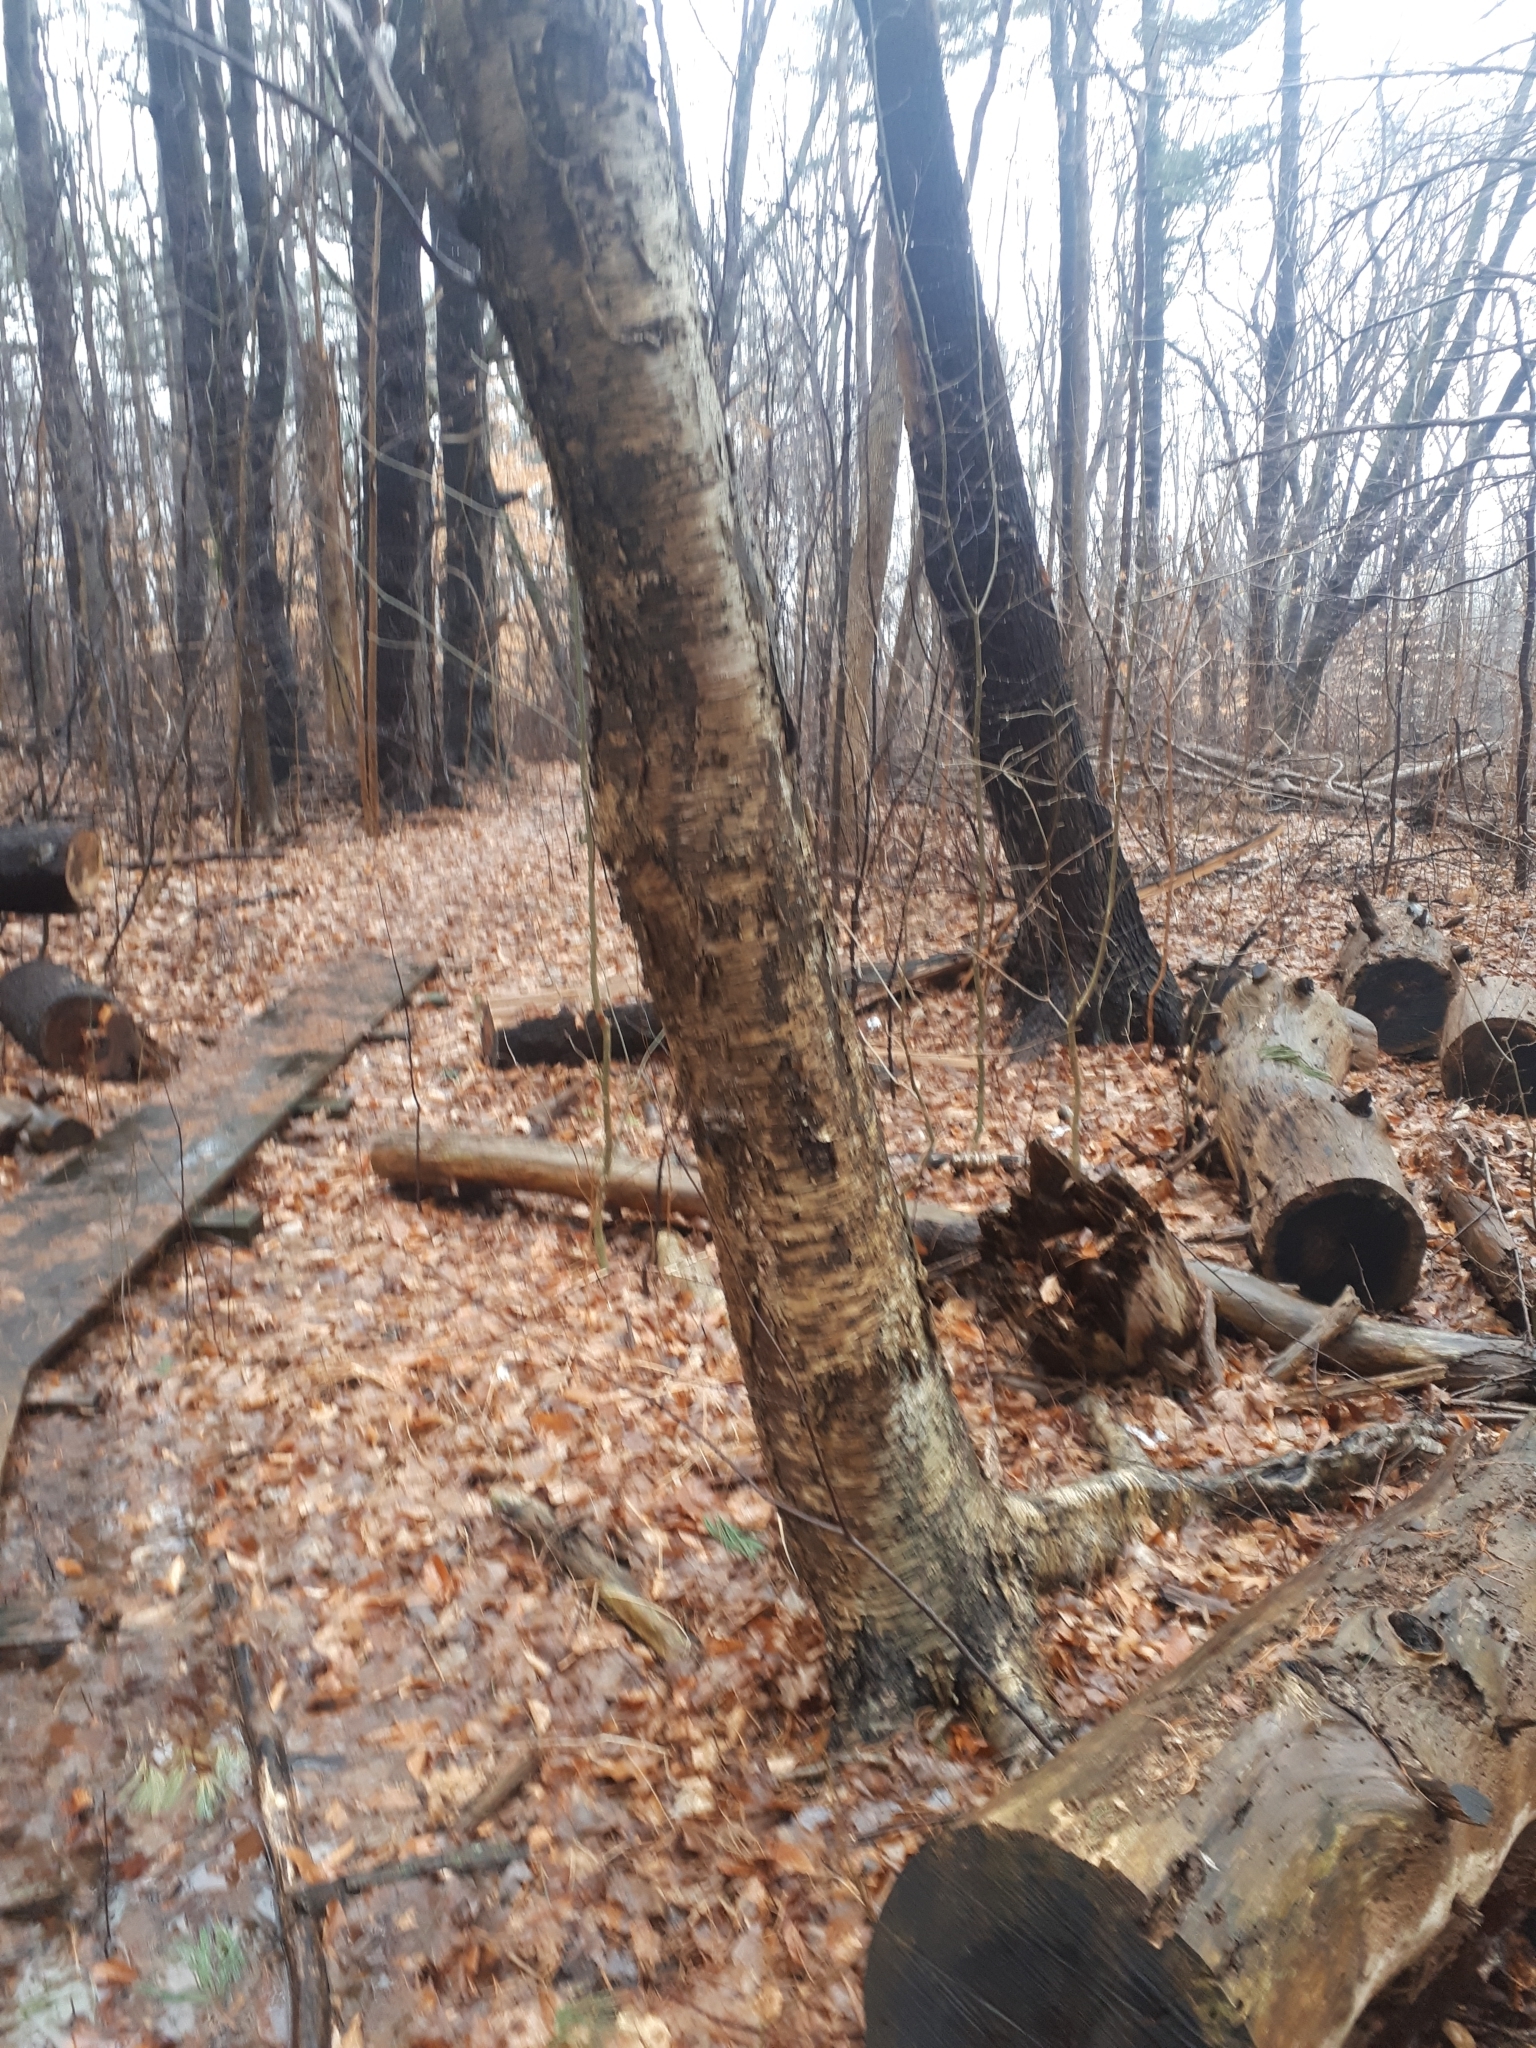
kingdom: Plantae
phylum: Tracheophyta
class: Magnoliopsida
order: Fagales
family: Betulaceae
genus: Betula
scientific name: Betula alleghaniensis
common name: Yellow birch
